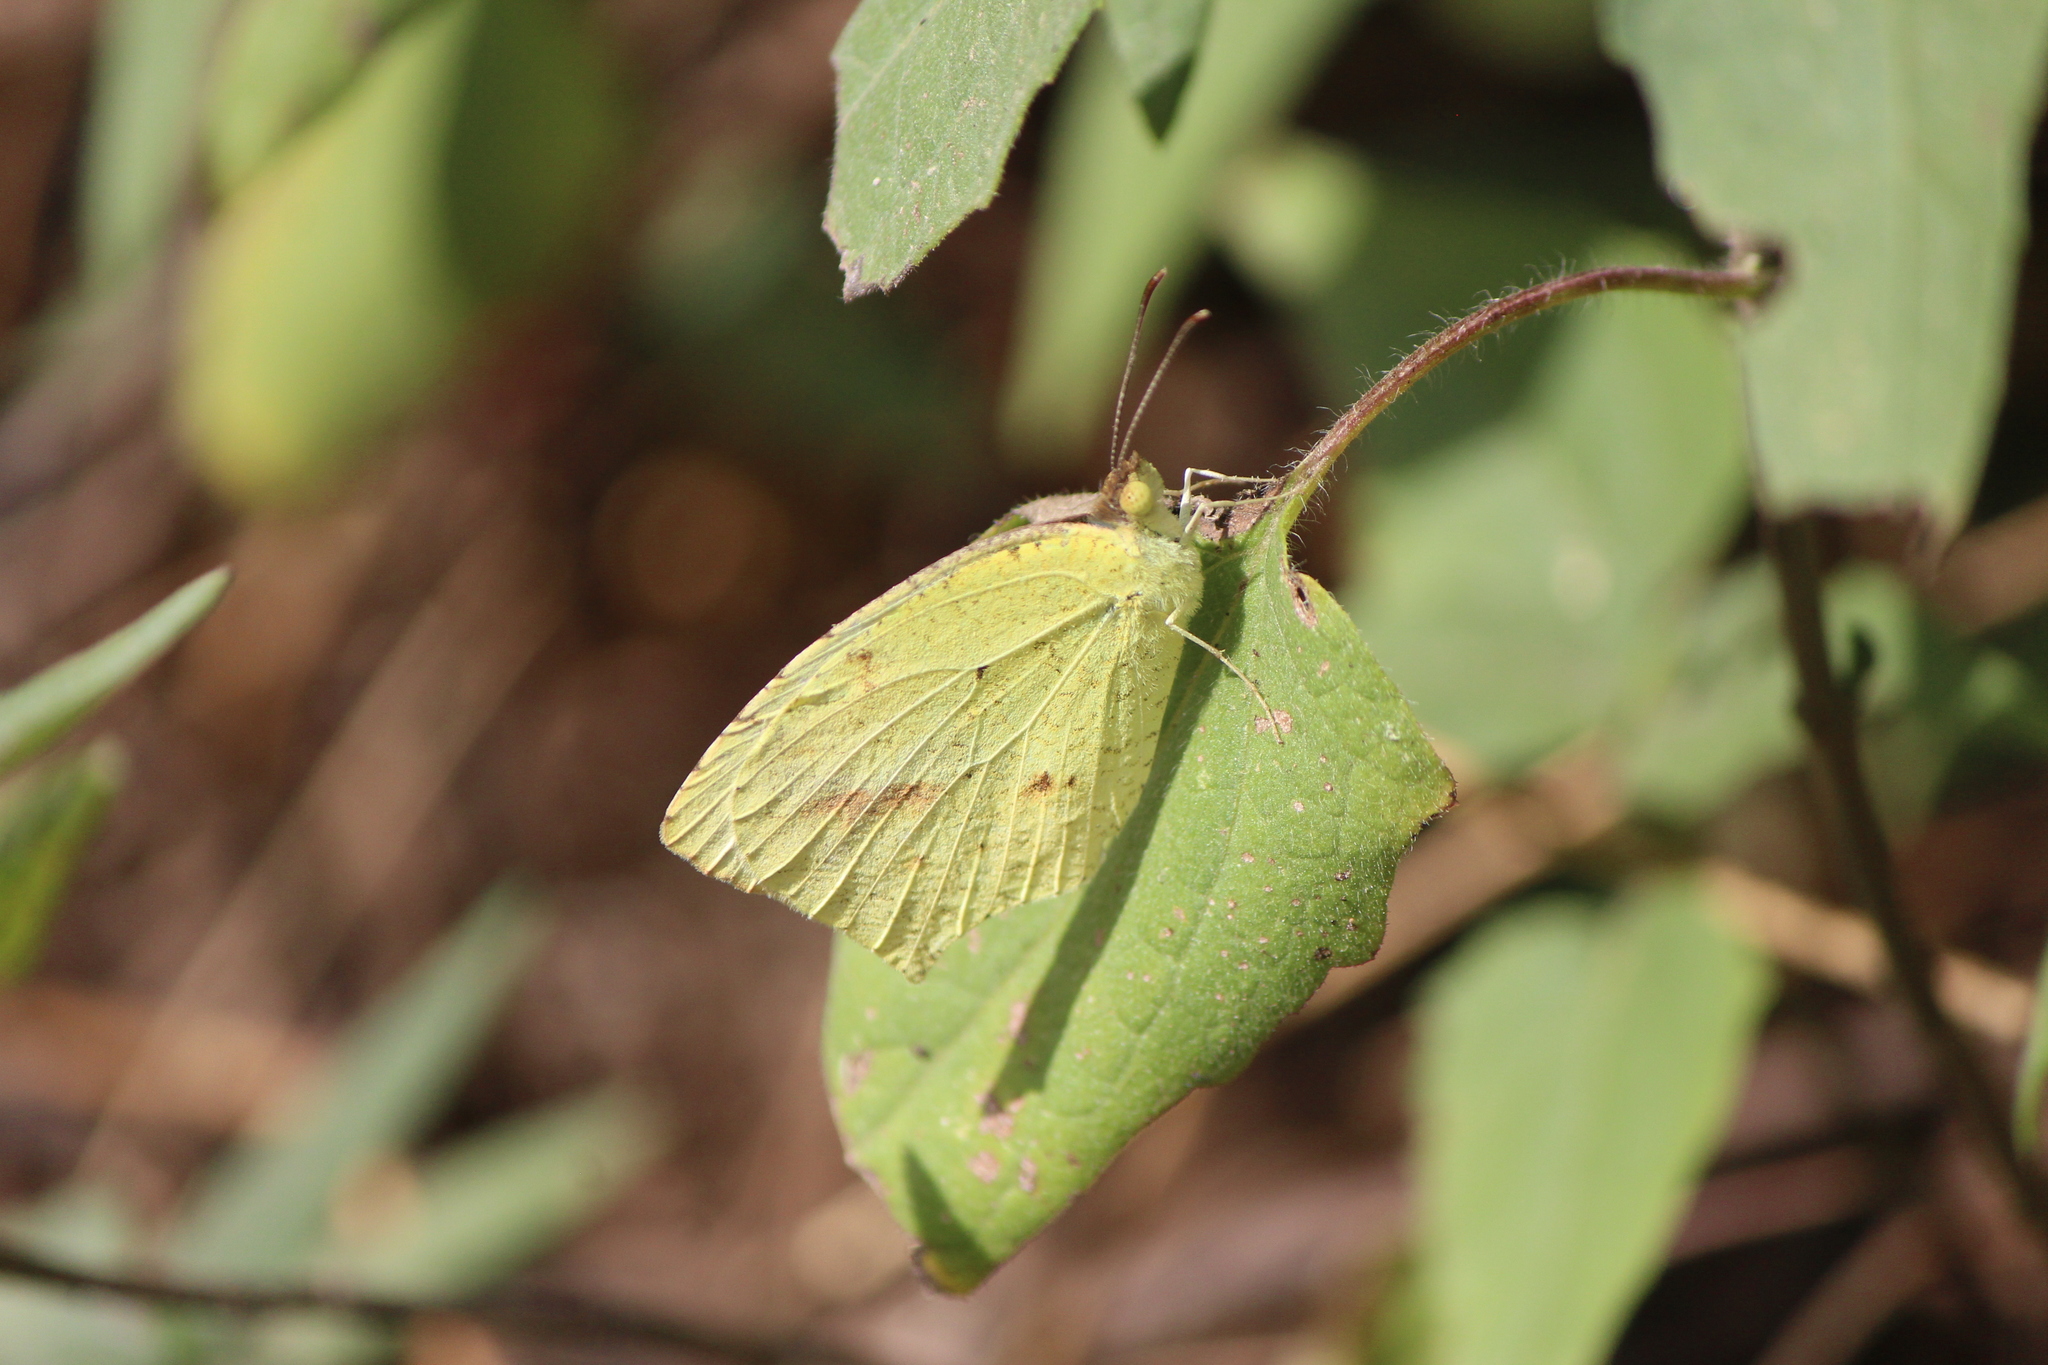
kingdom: Animalia
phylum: Arthropoda
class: Insecta
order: Lepidoptera
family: Pieridae
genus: Abaeis
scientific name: Abaeis mexicana
